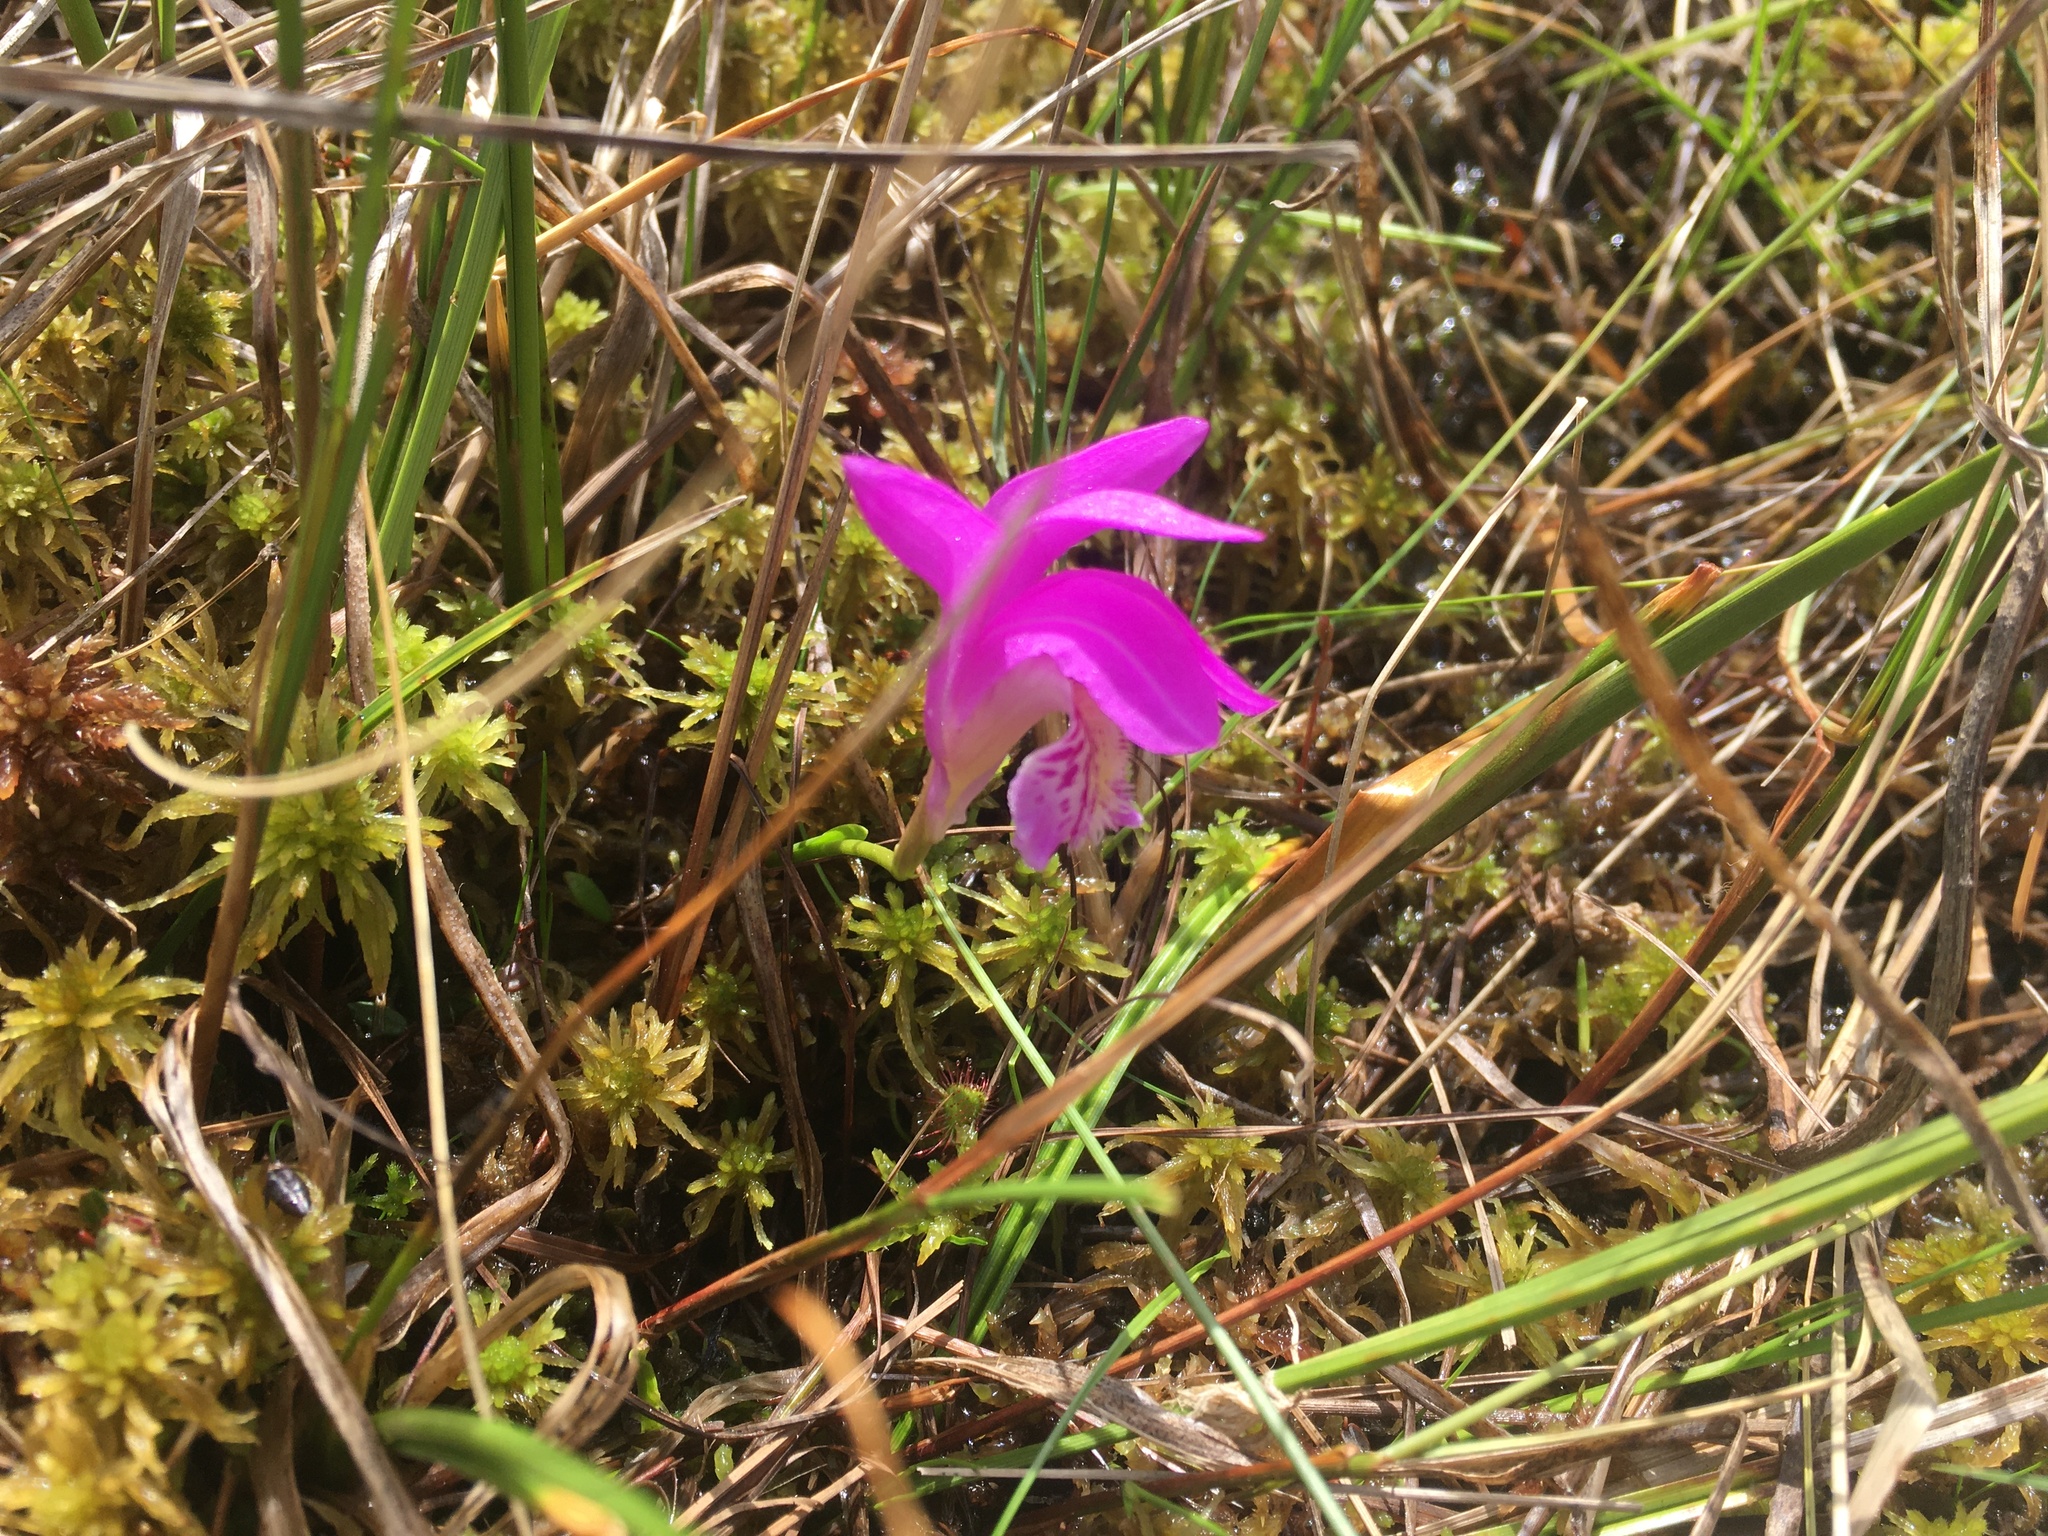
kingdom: Plantae
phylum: Tracheophyta
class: Liliopsida
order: Asparagales
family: Orchidaceae
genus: Arethusa
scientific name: Arethusa bulbosa
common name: Arethusa
